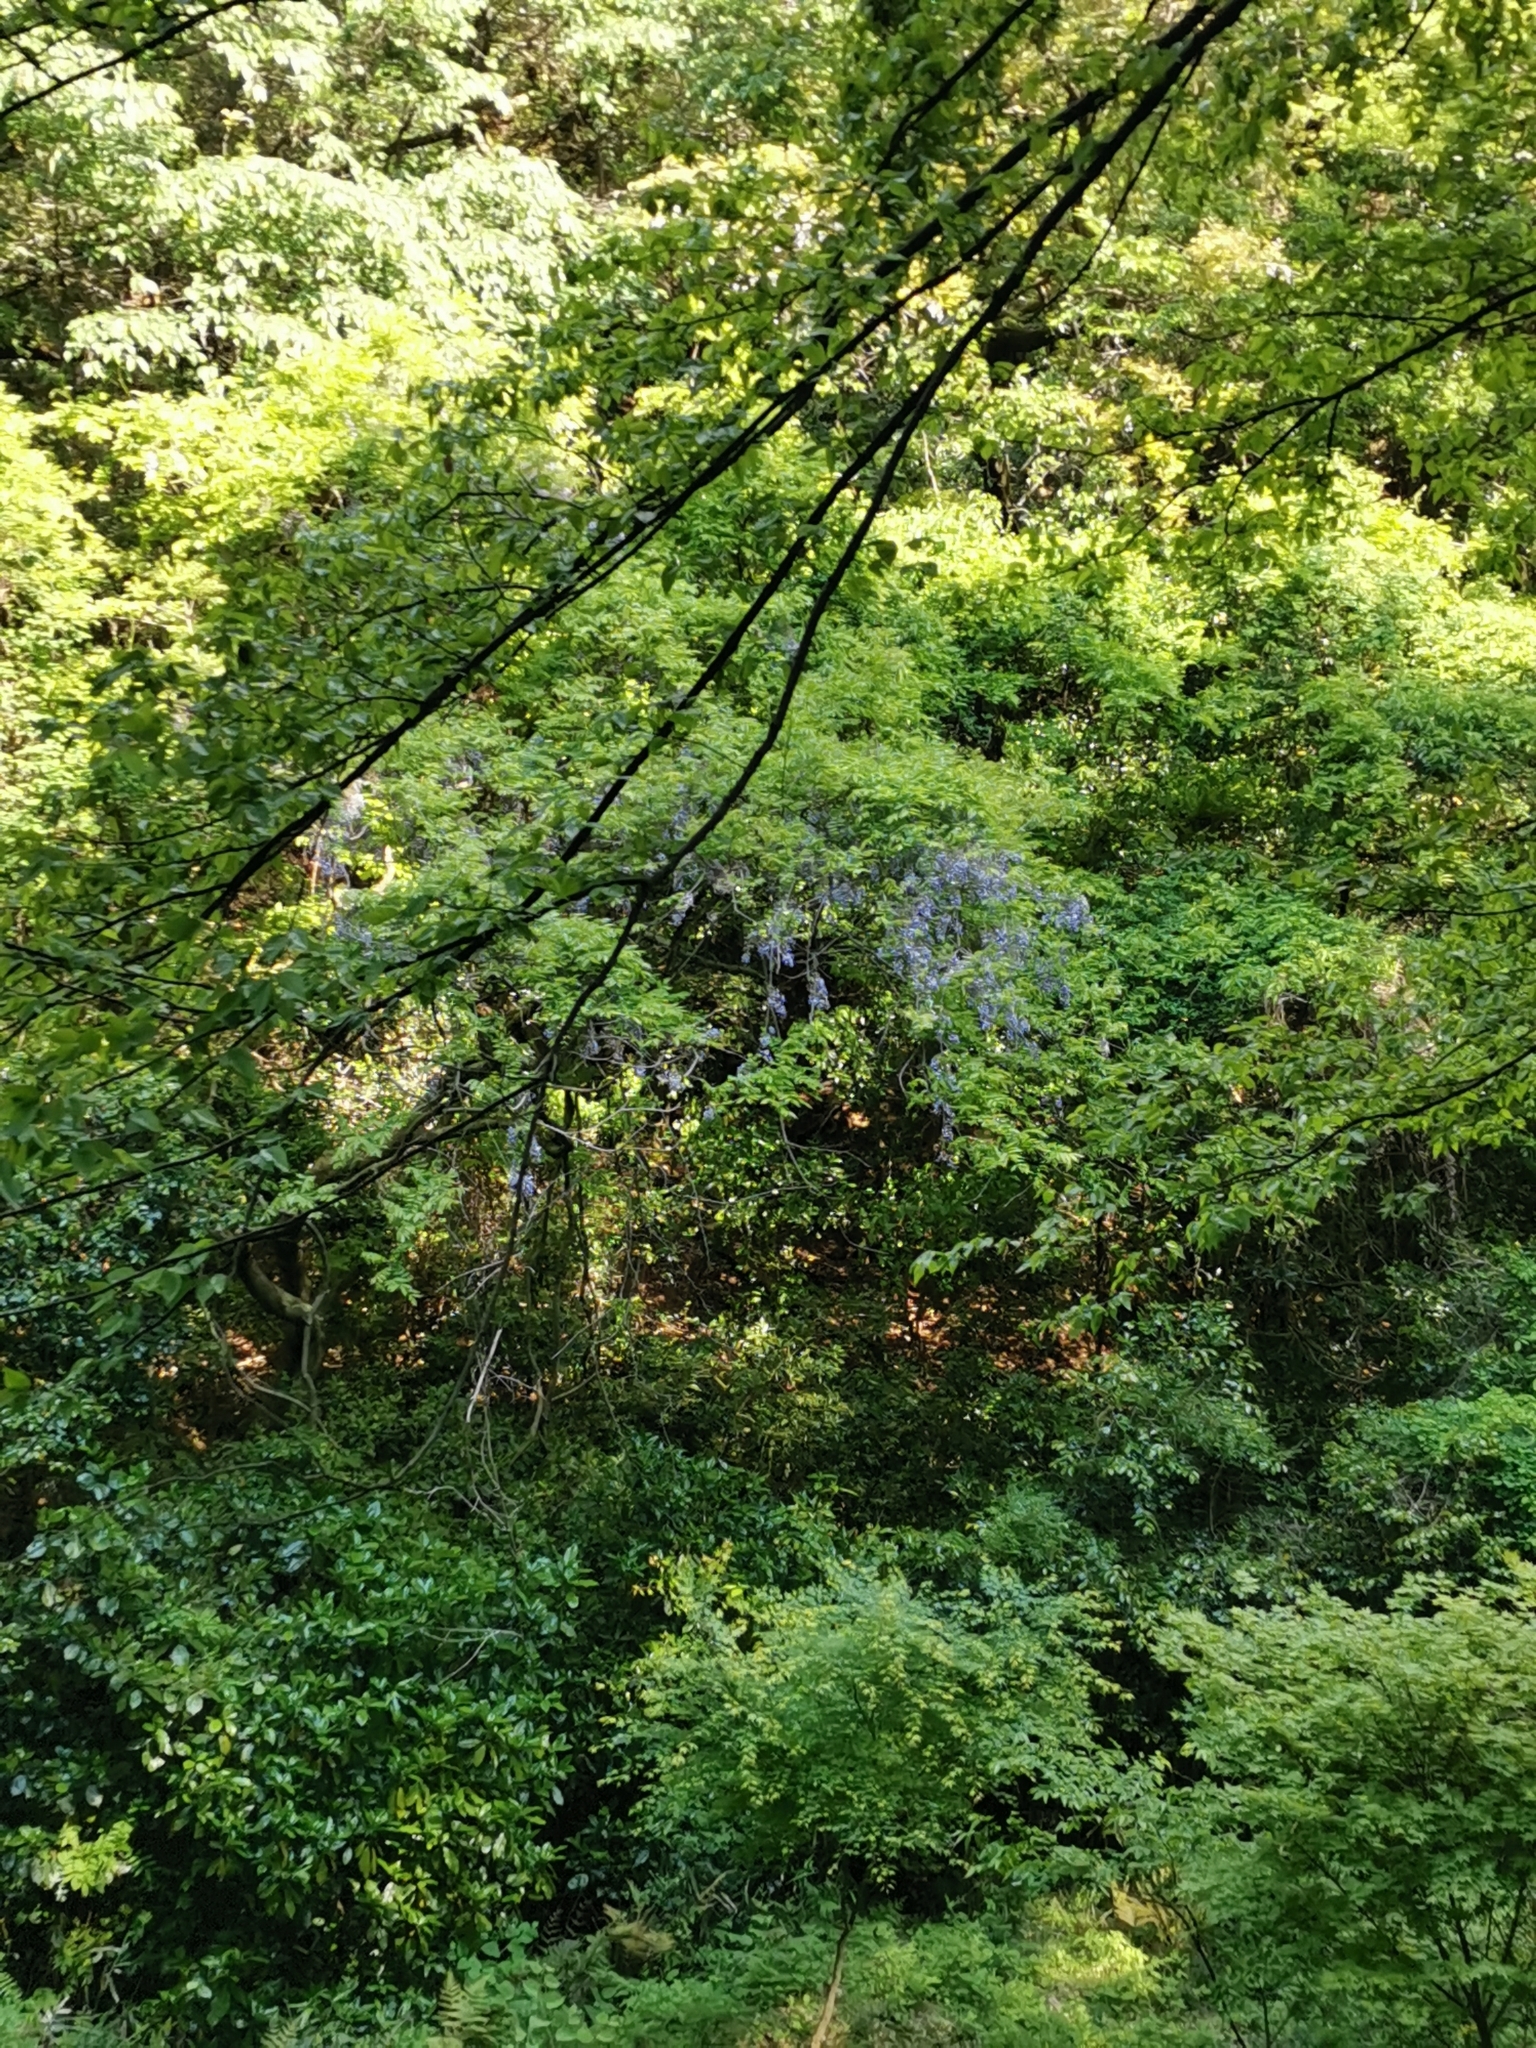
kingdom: Plantae
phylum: Tracheophyta
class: Magnoliopsida
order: Fabales
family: Fabaceae
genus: Wisteria
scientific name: Wisteria floribunda
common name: Japanese wisteria
